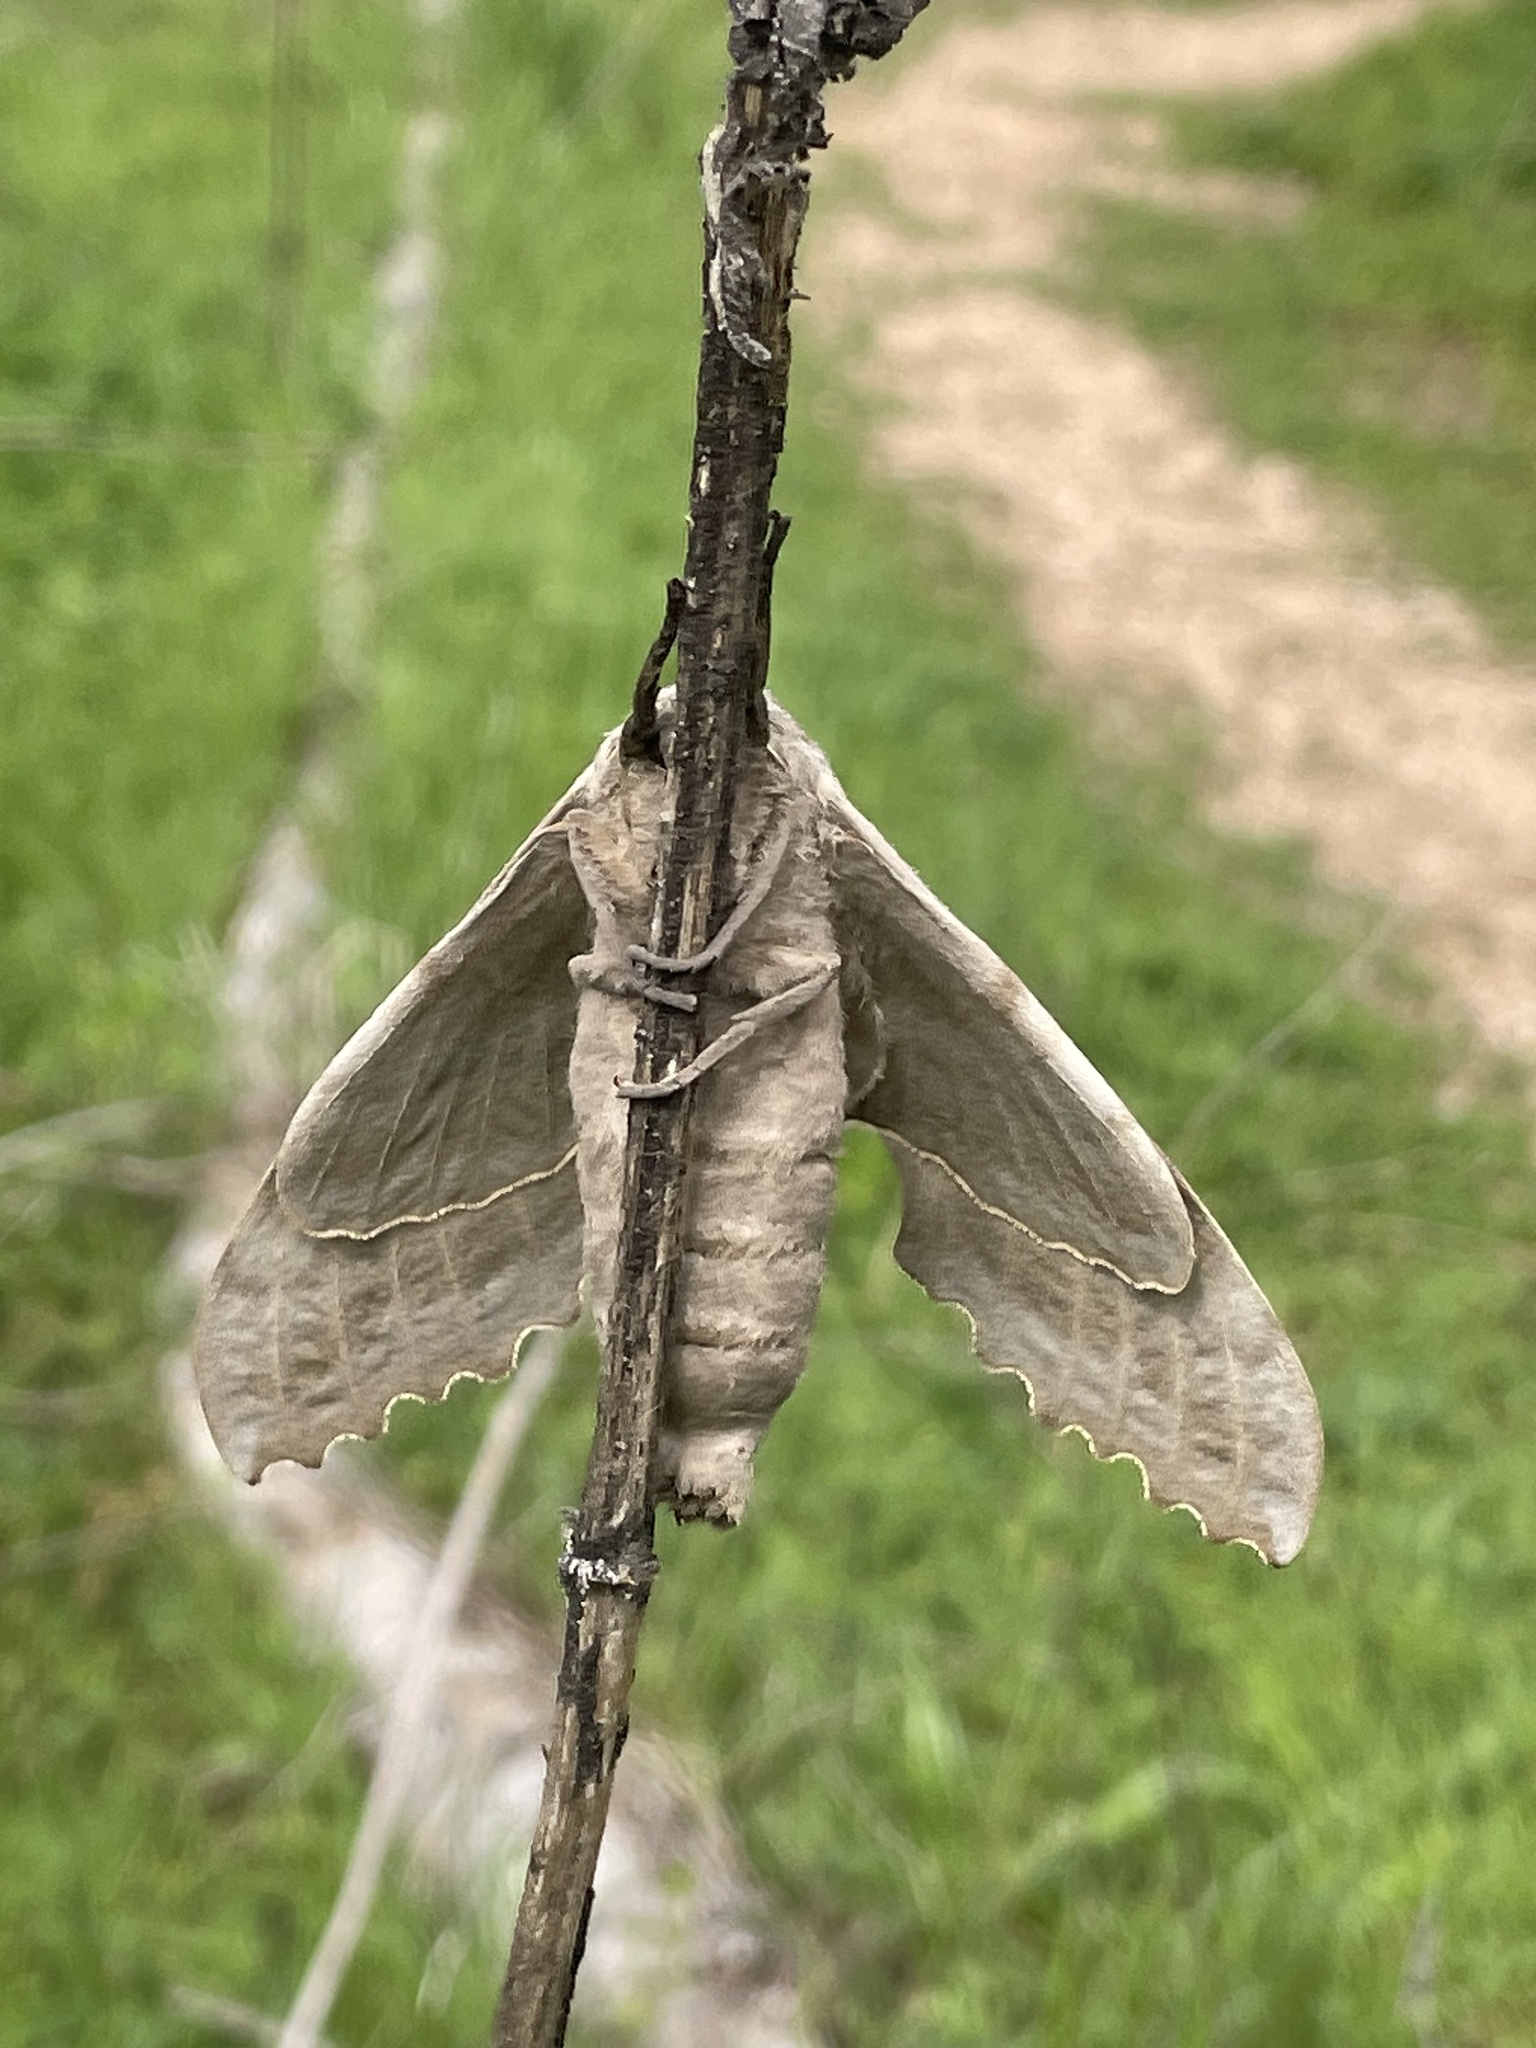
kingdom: Animalia
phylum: Arthropoda
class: Insecta
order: Lepidoptera
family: Sphingidae
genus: Pachysphinx
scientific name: Pachysphinx modesta
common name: Big poplar sphinx
